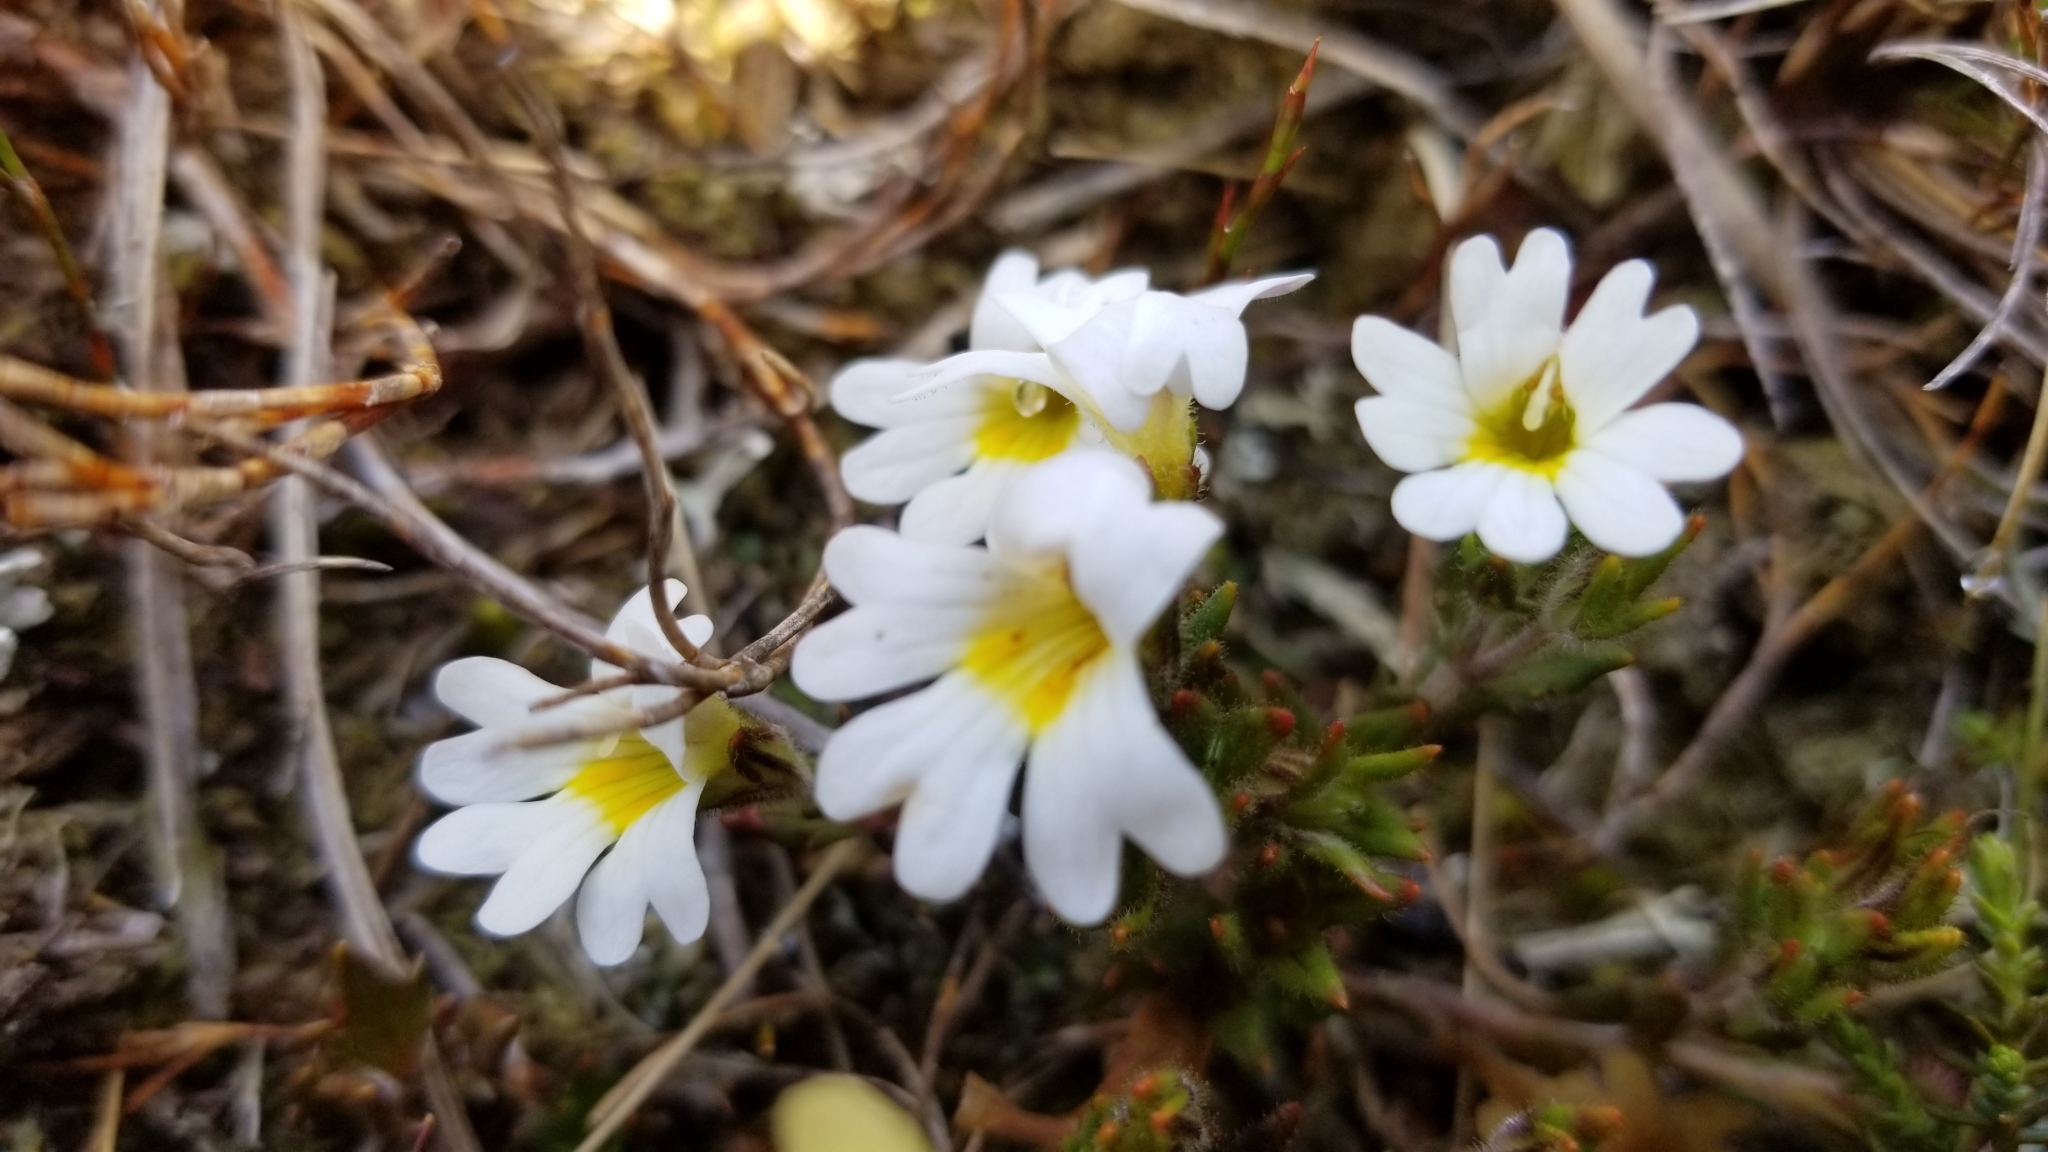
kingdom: Plantae
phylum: Tracheophyta
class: Magnoliopsida
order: Lamiales
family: Orobanchaceae
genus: Euphrasia
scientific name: Euphrasia townsonii
